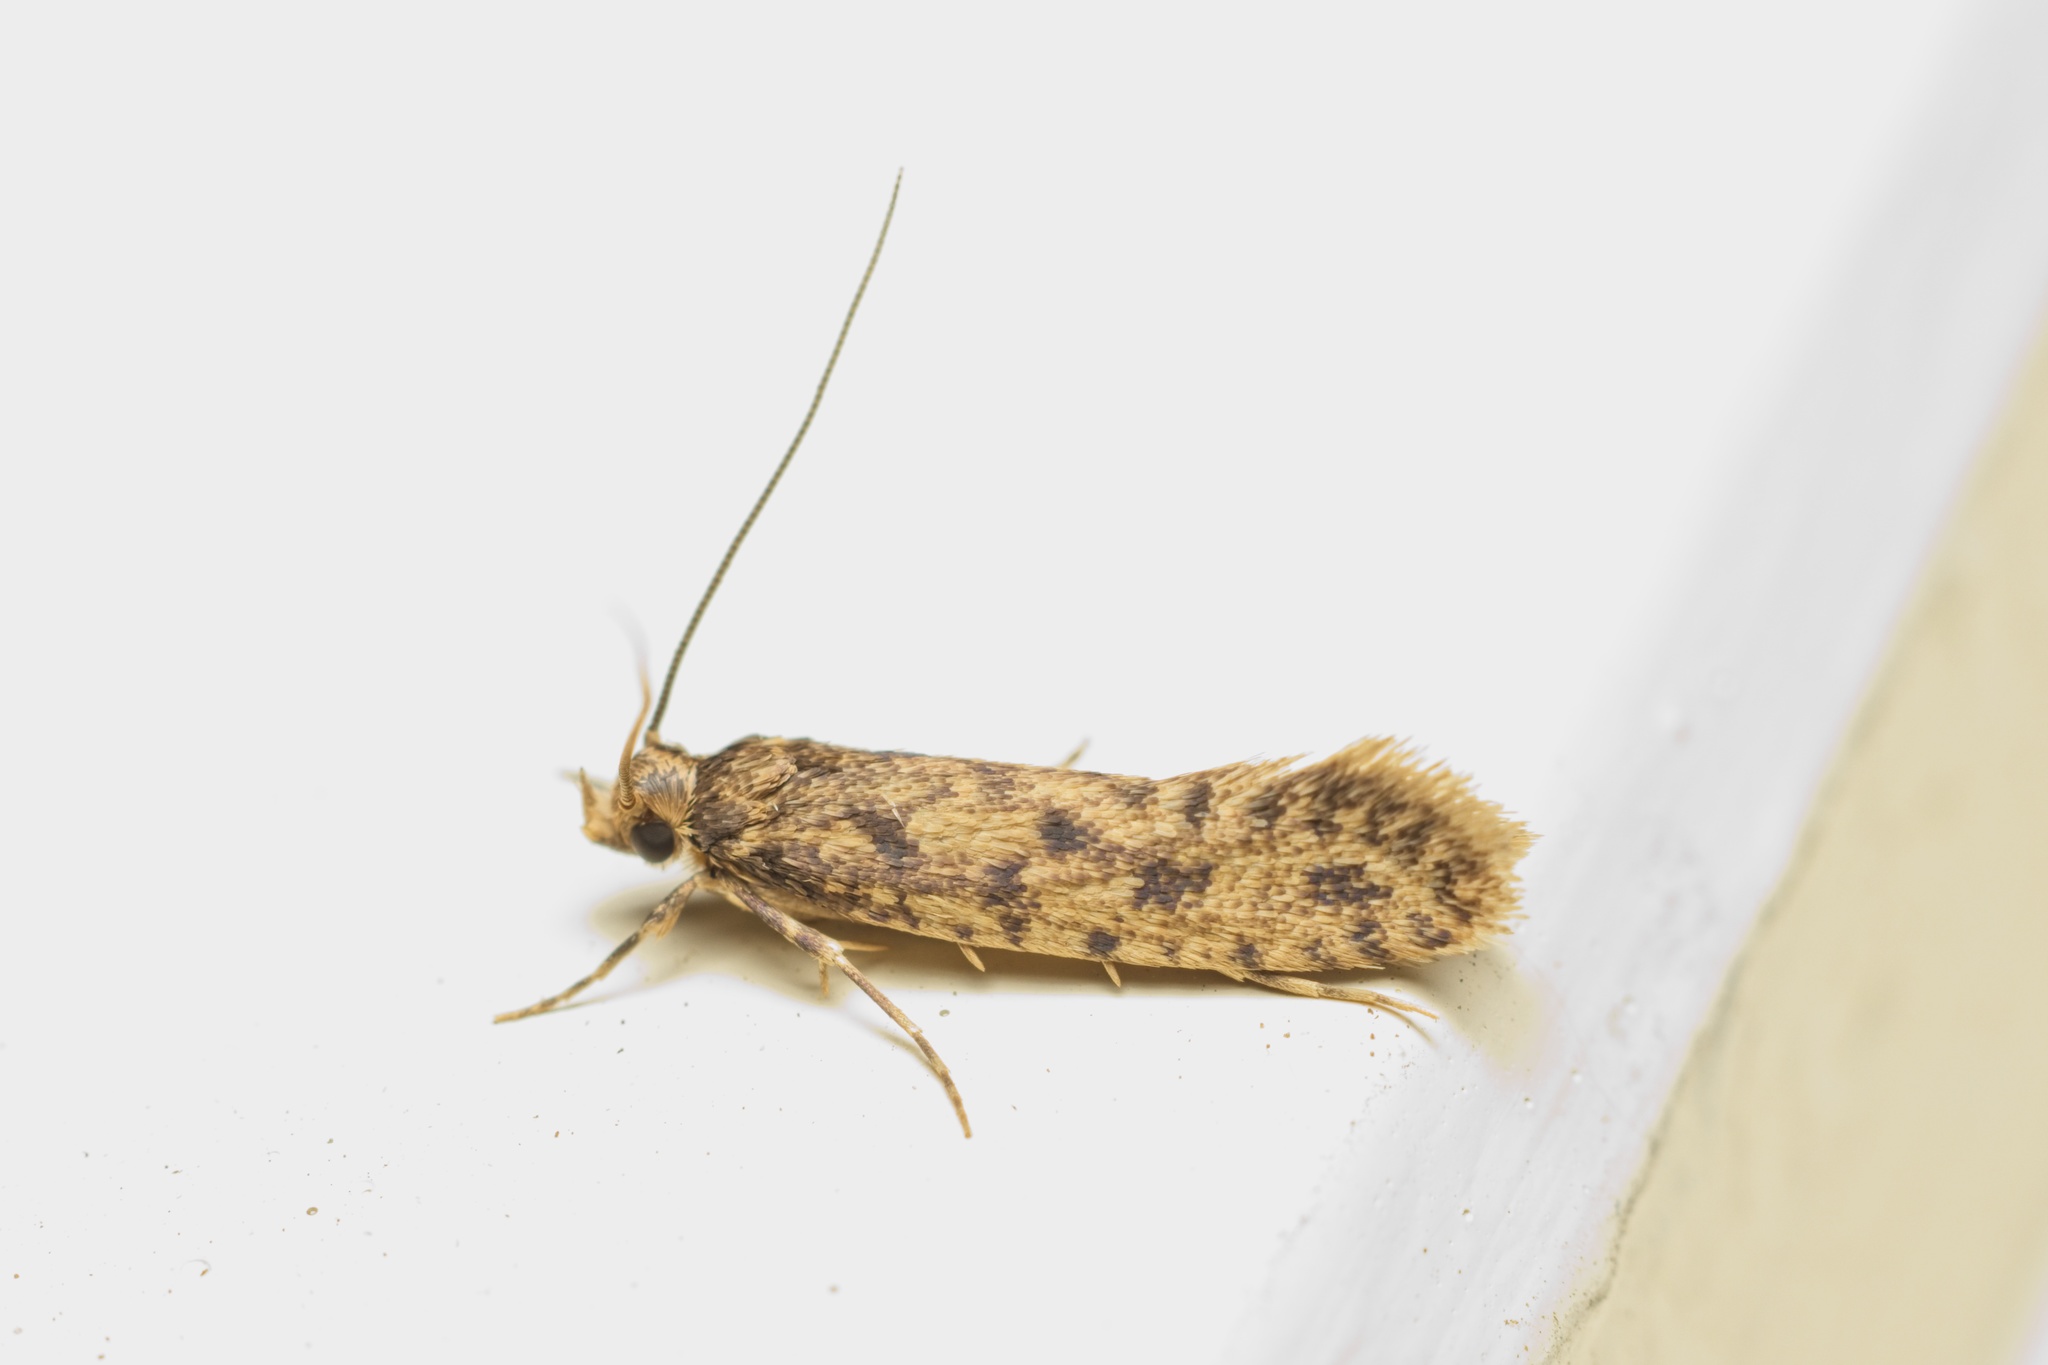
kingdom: Animalia
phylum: Arthropoda
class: Insecta
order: Lepidoptera
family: Tineidae
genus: Lindera
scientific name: Lindera tessellatella
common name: Moth
